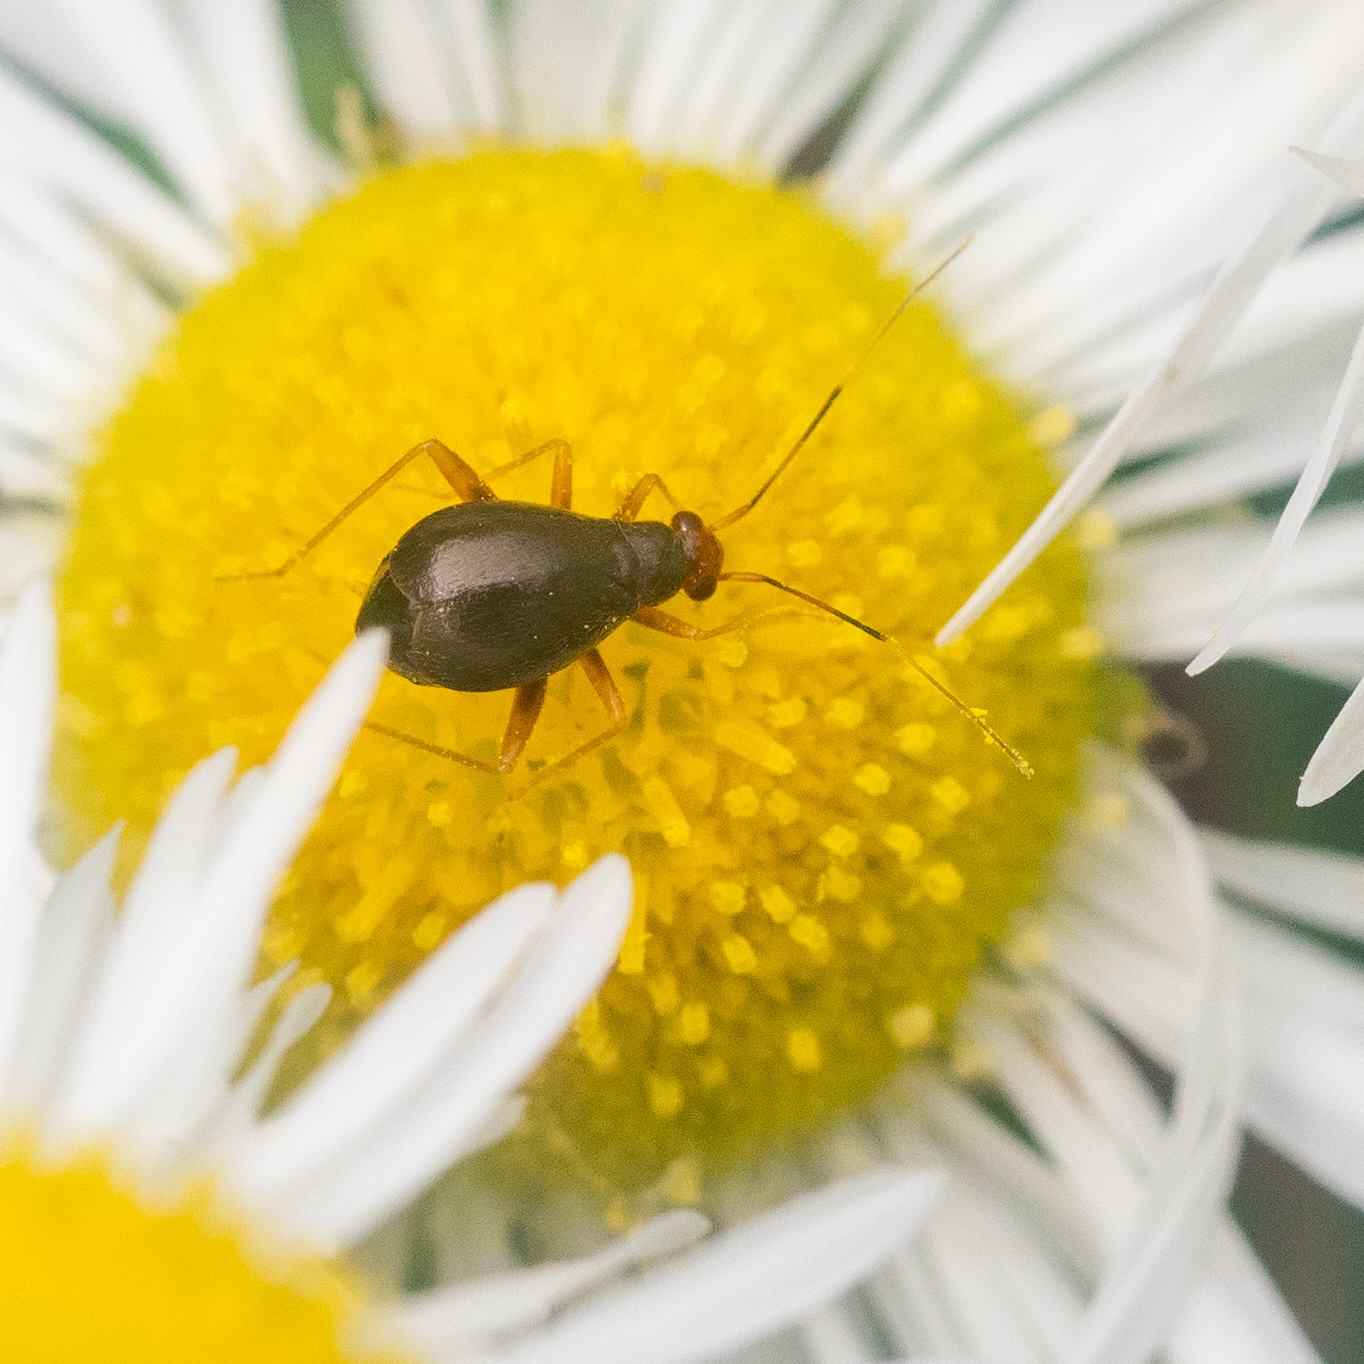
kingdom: Animalia
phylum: Arthropoda
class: Insecta
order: Hemiptera
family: Miridae
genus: Orthonotus
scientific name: Orthonotus rufifrons
